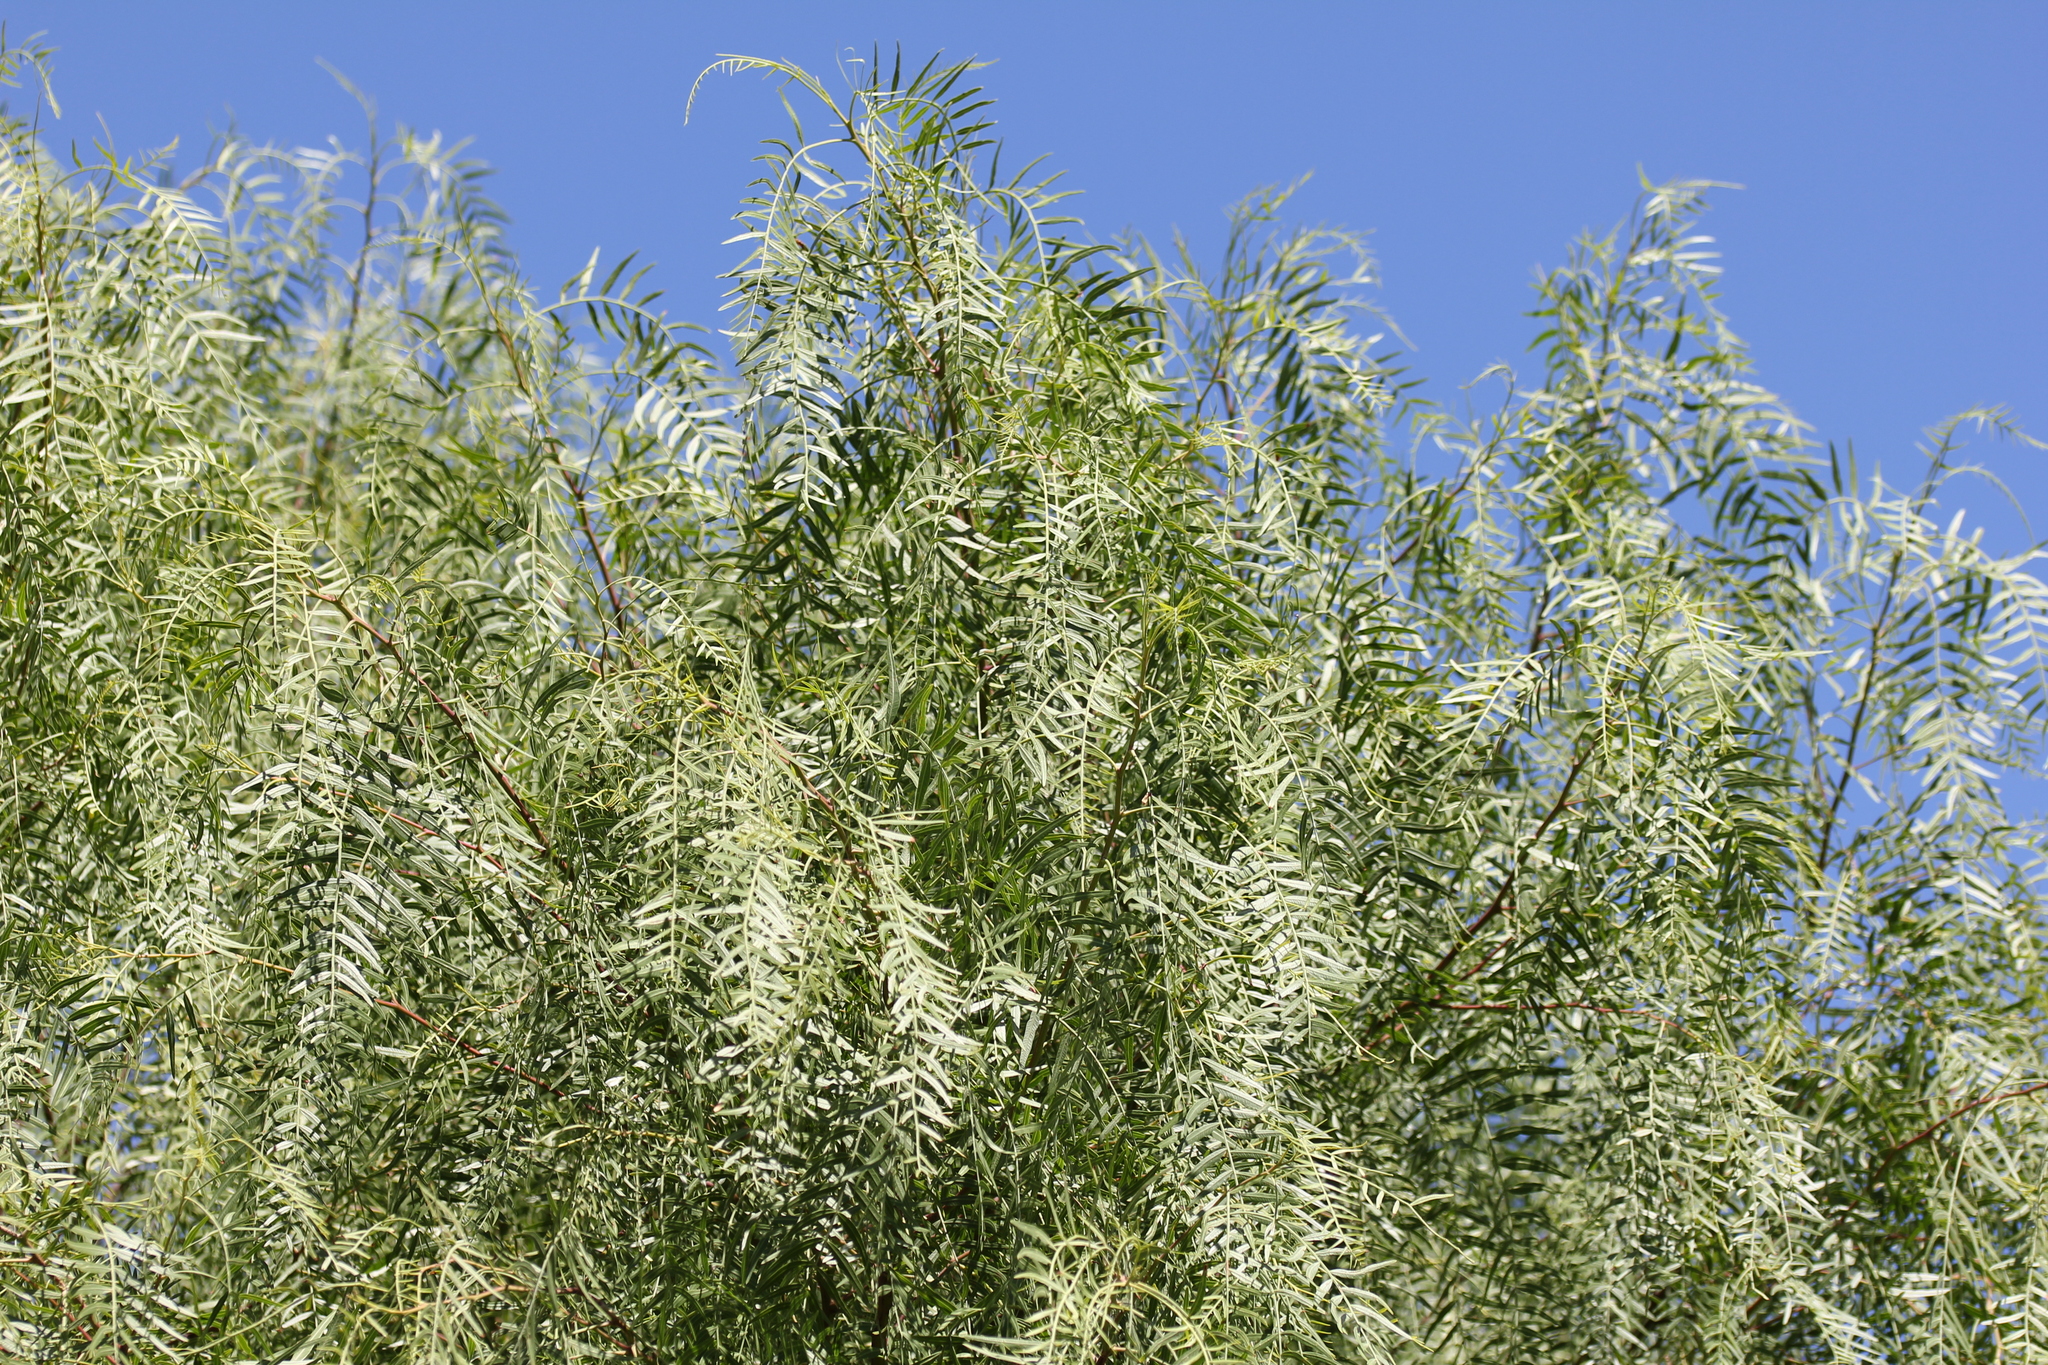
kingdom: Plantae
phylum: Tracheophyta
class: Magnoliopsida
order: Sapindales
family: Anacardiaceae
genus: Schinus
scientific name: Schinus molle
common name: Peruvian peppertree
